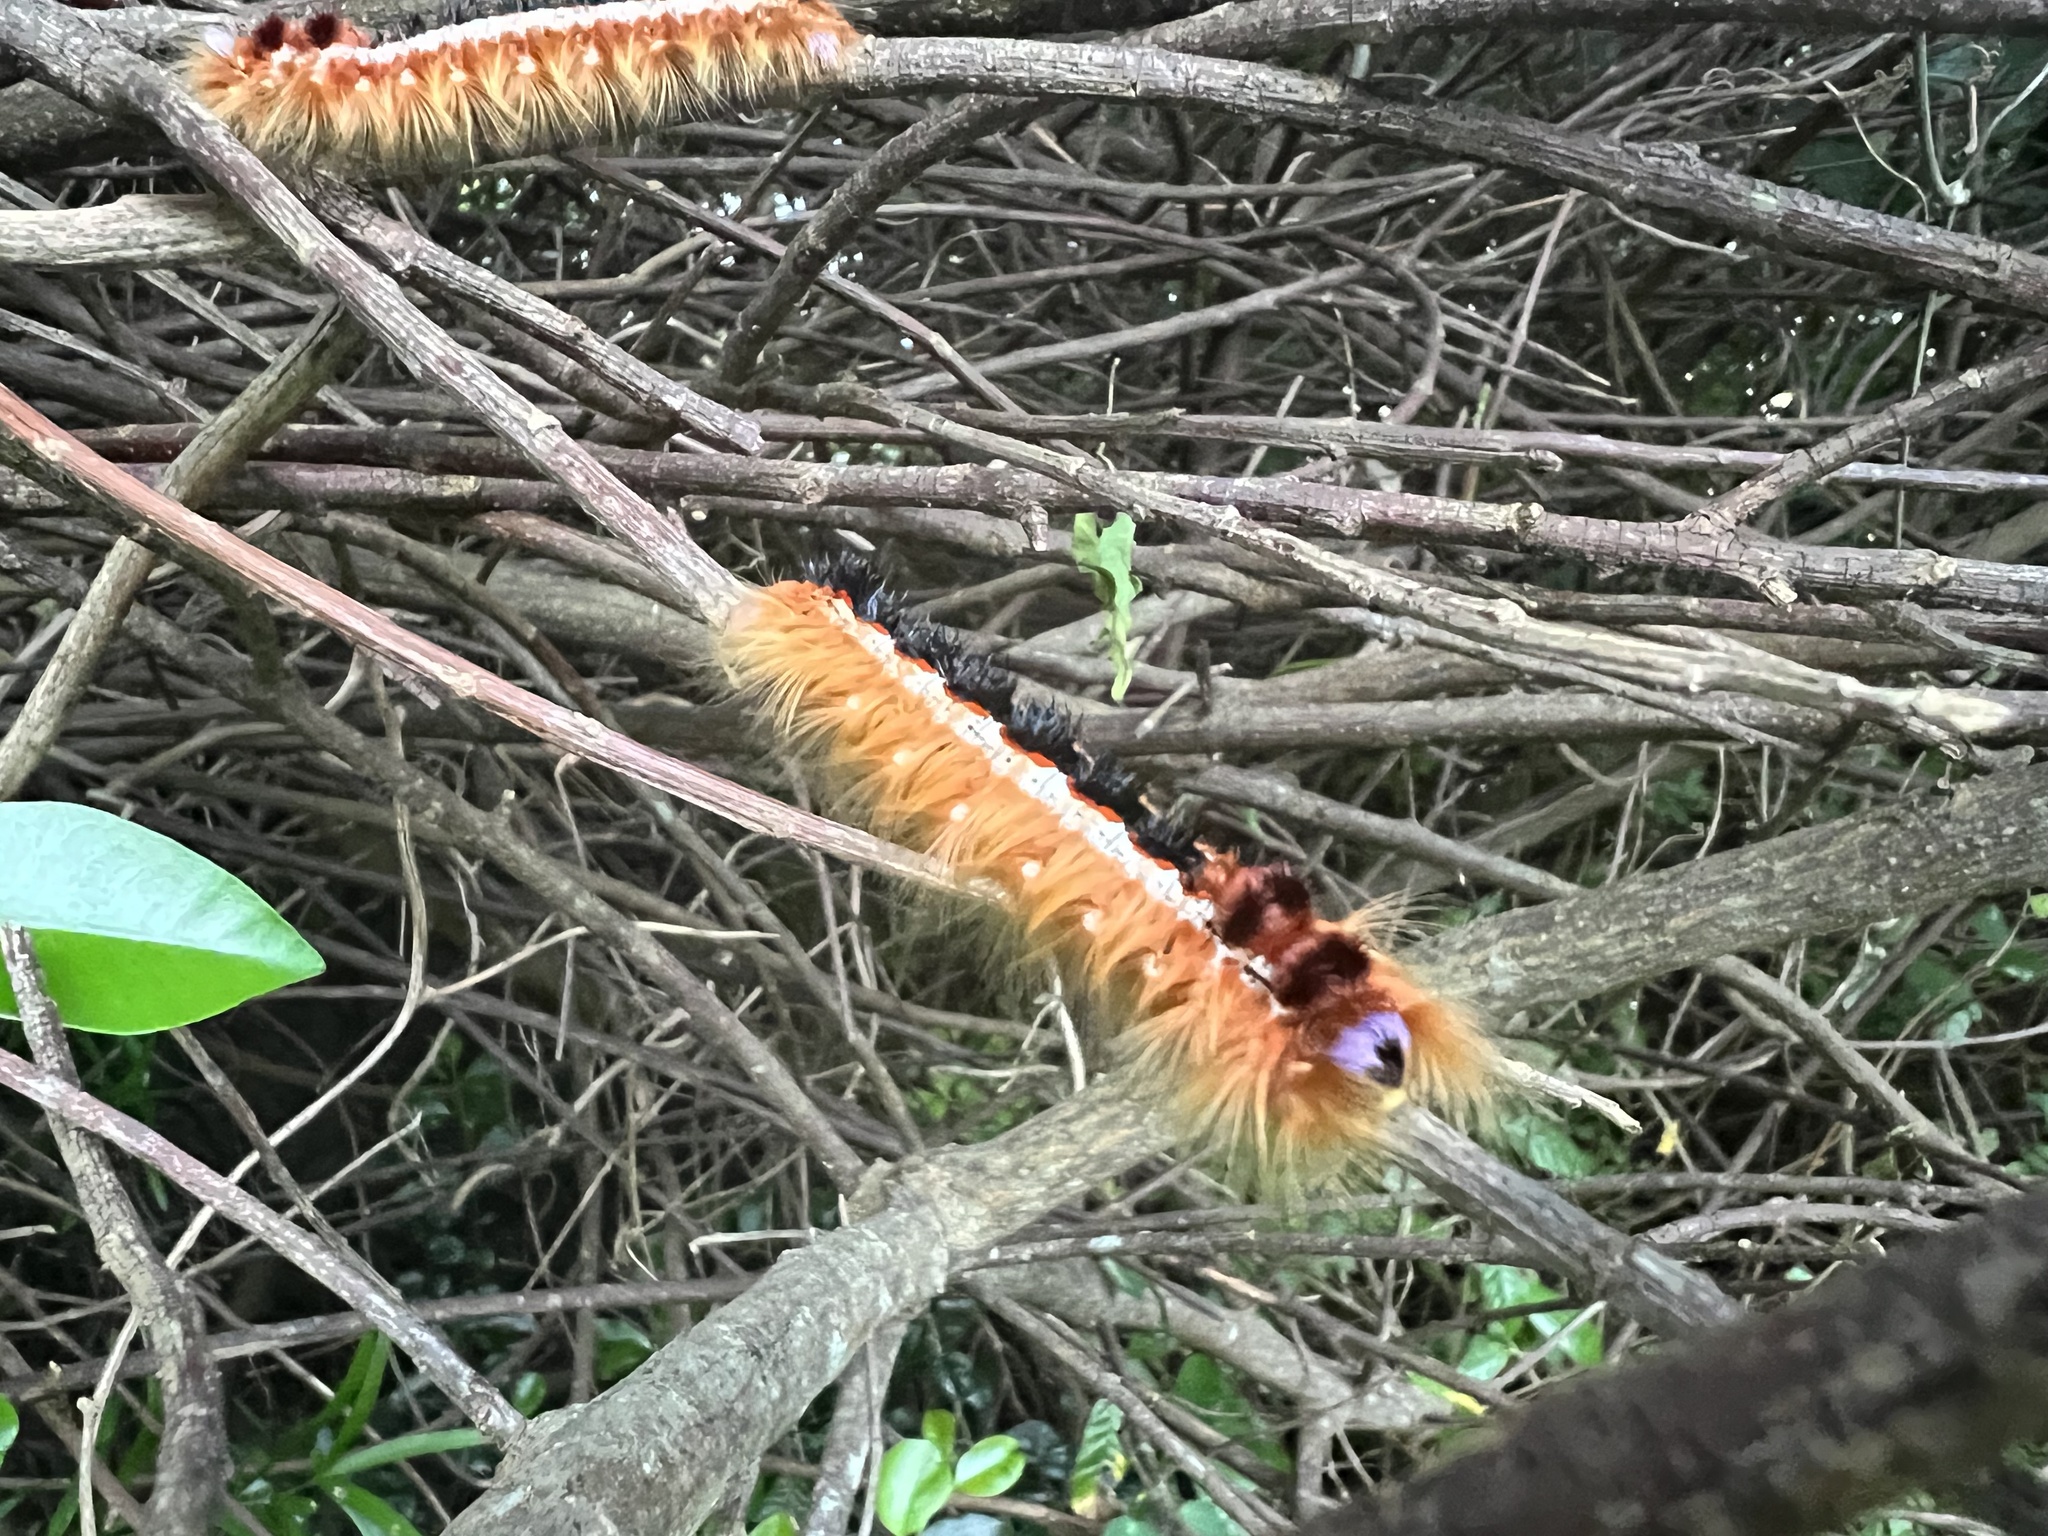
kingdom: Animalia
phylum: Arthropoda
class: Insecta
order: Lepidoptera
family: Lasiocampidae
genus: Eutricha
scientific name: Eutricha capensis
